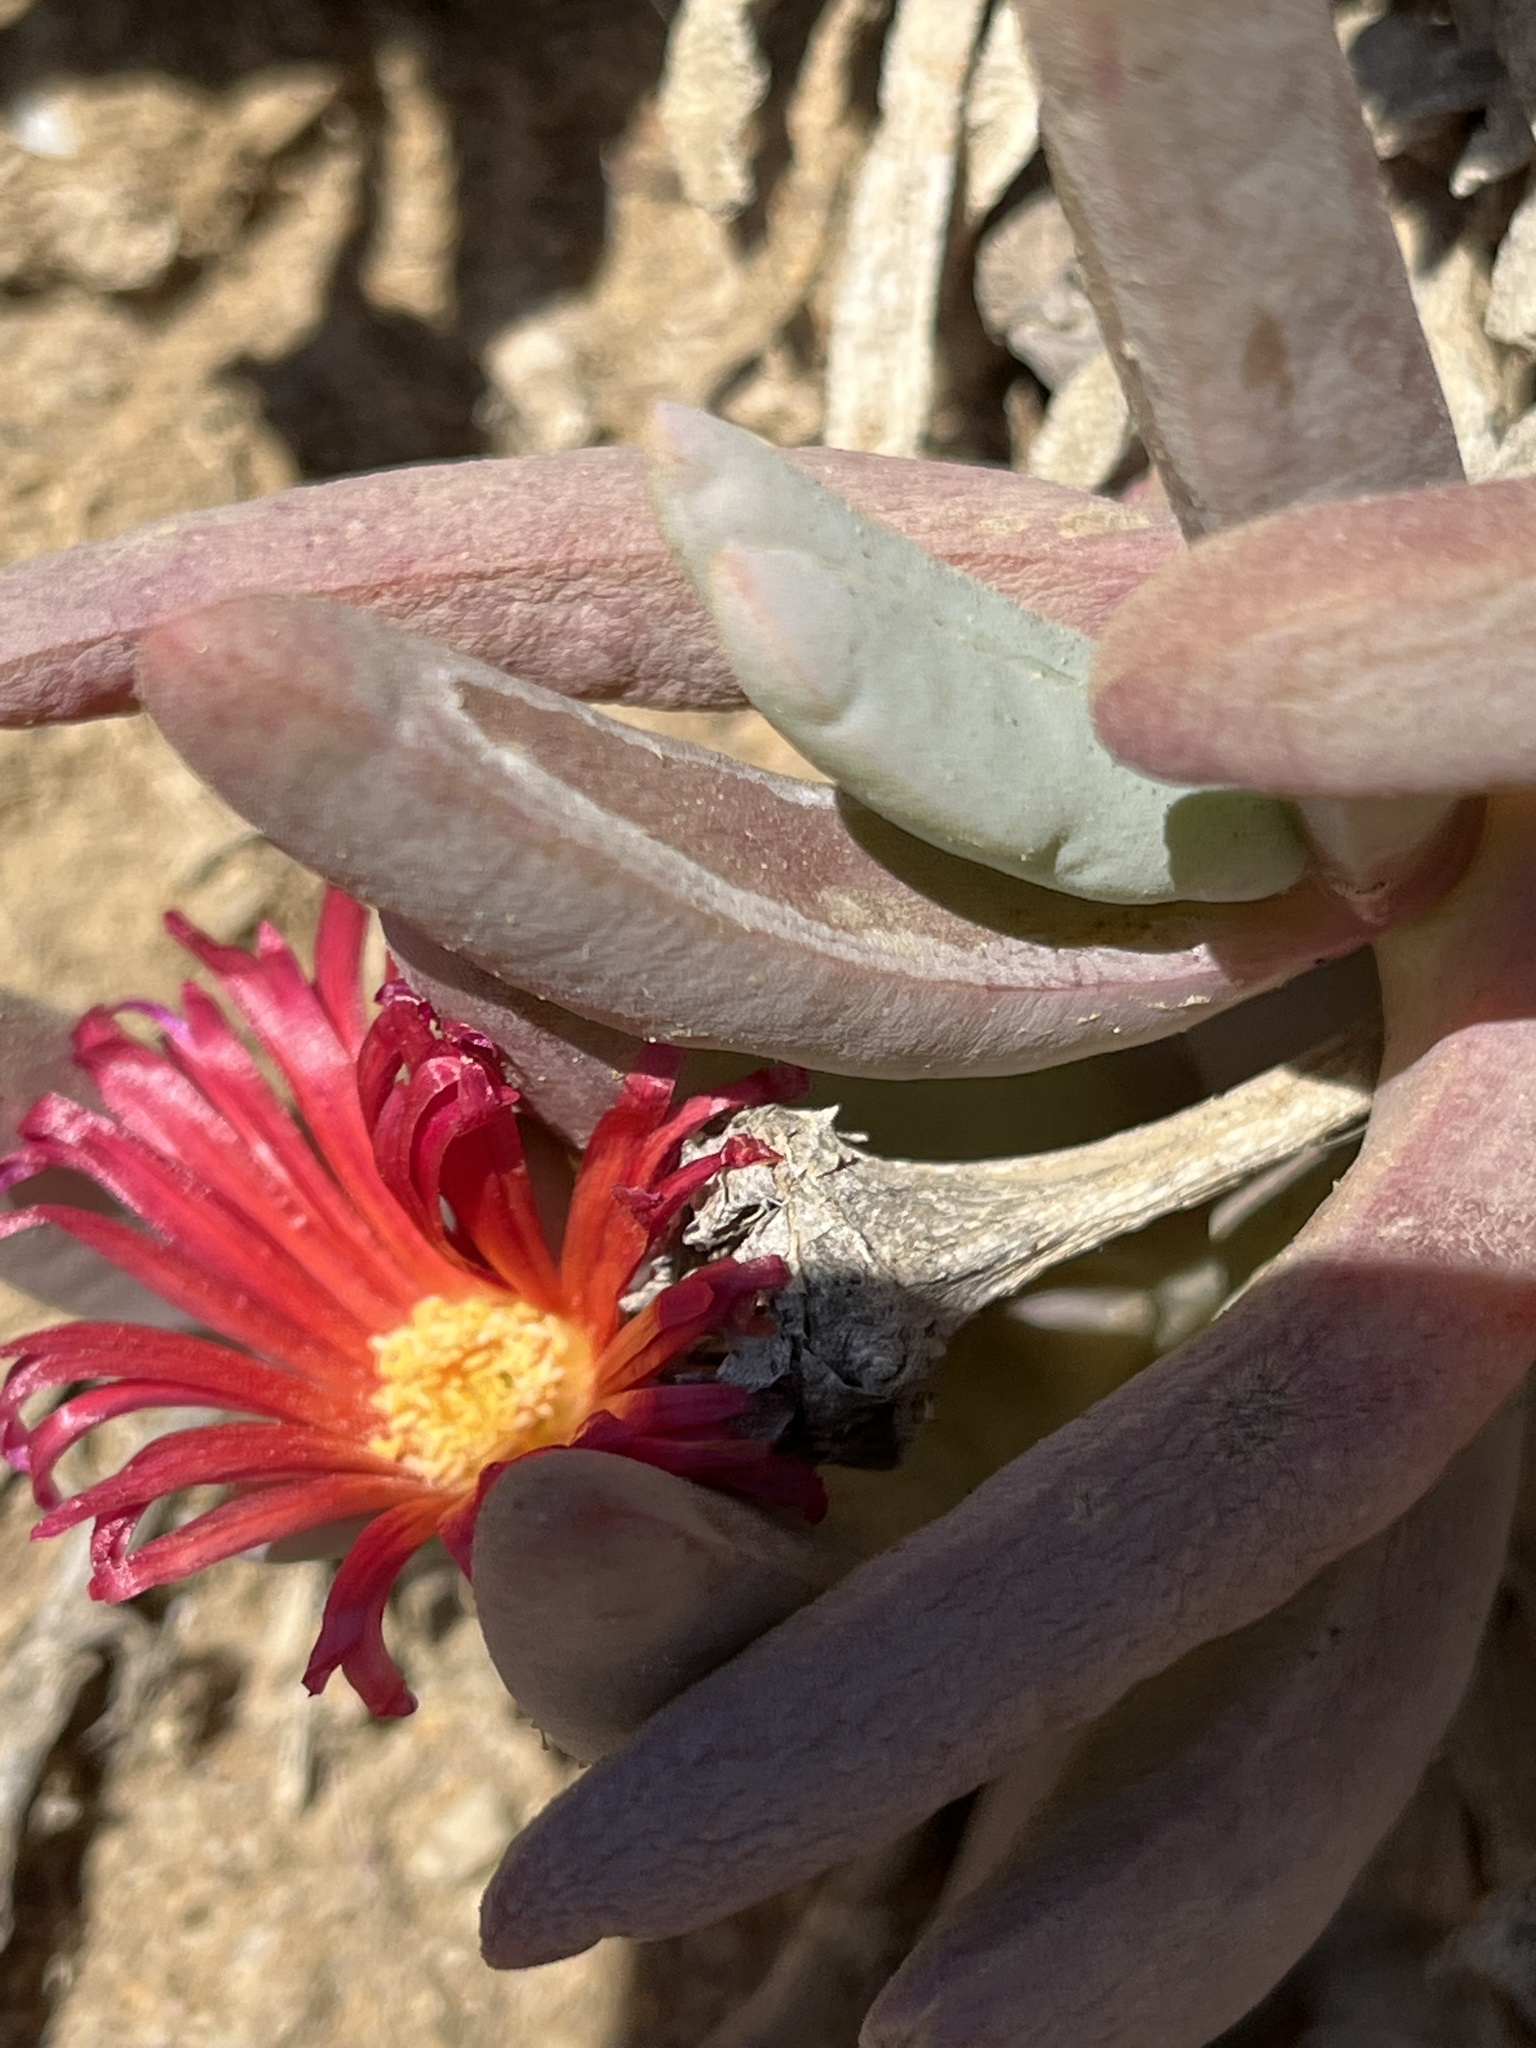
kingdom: Plantae
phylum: Tracheophyta
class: Magnoliopsida
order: Caryophyllales
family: Aizoaceae
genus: Malephora
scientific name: Malephora purpureocrocea
